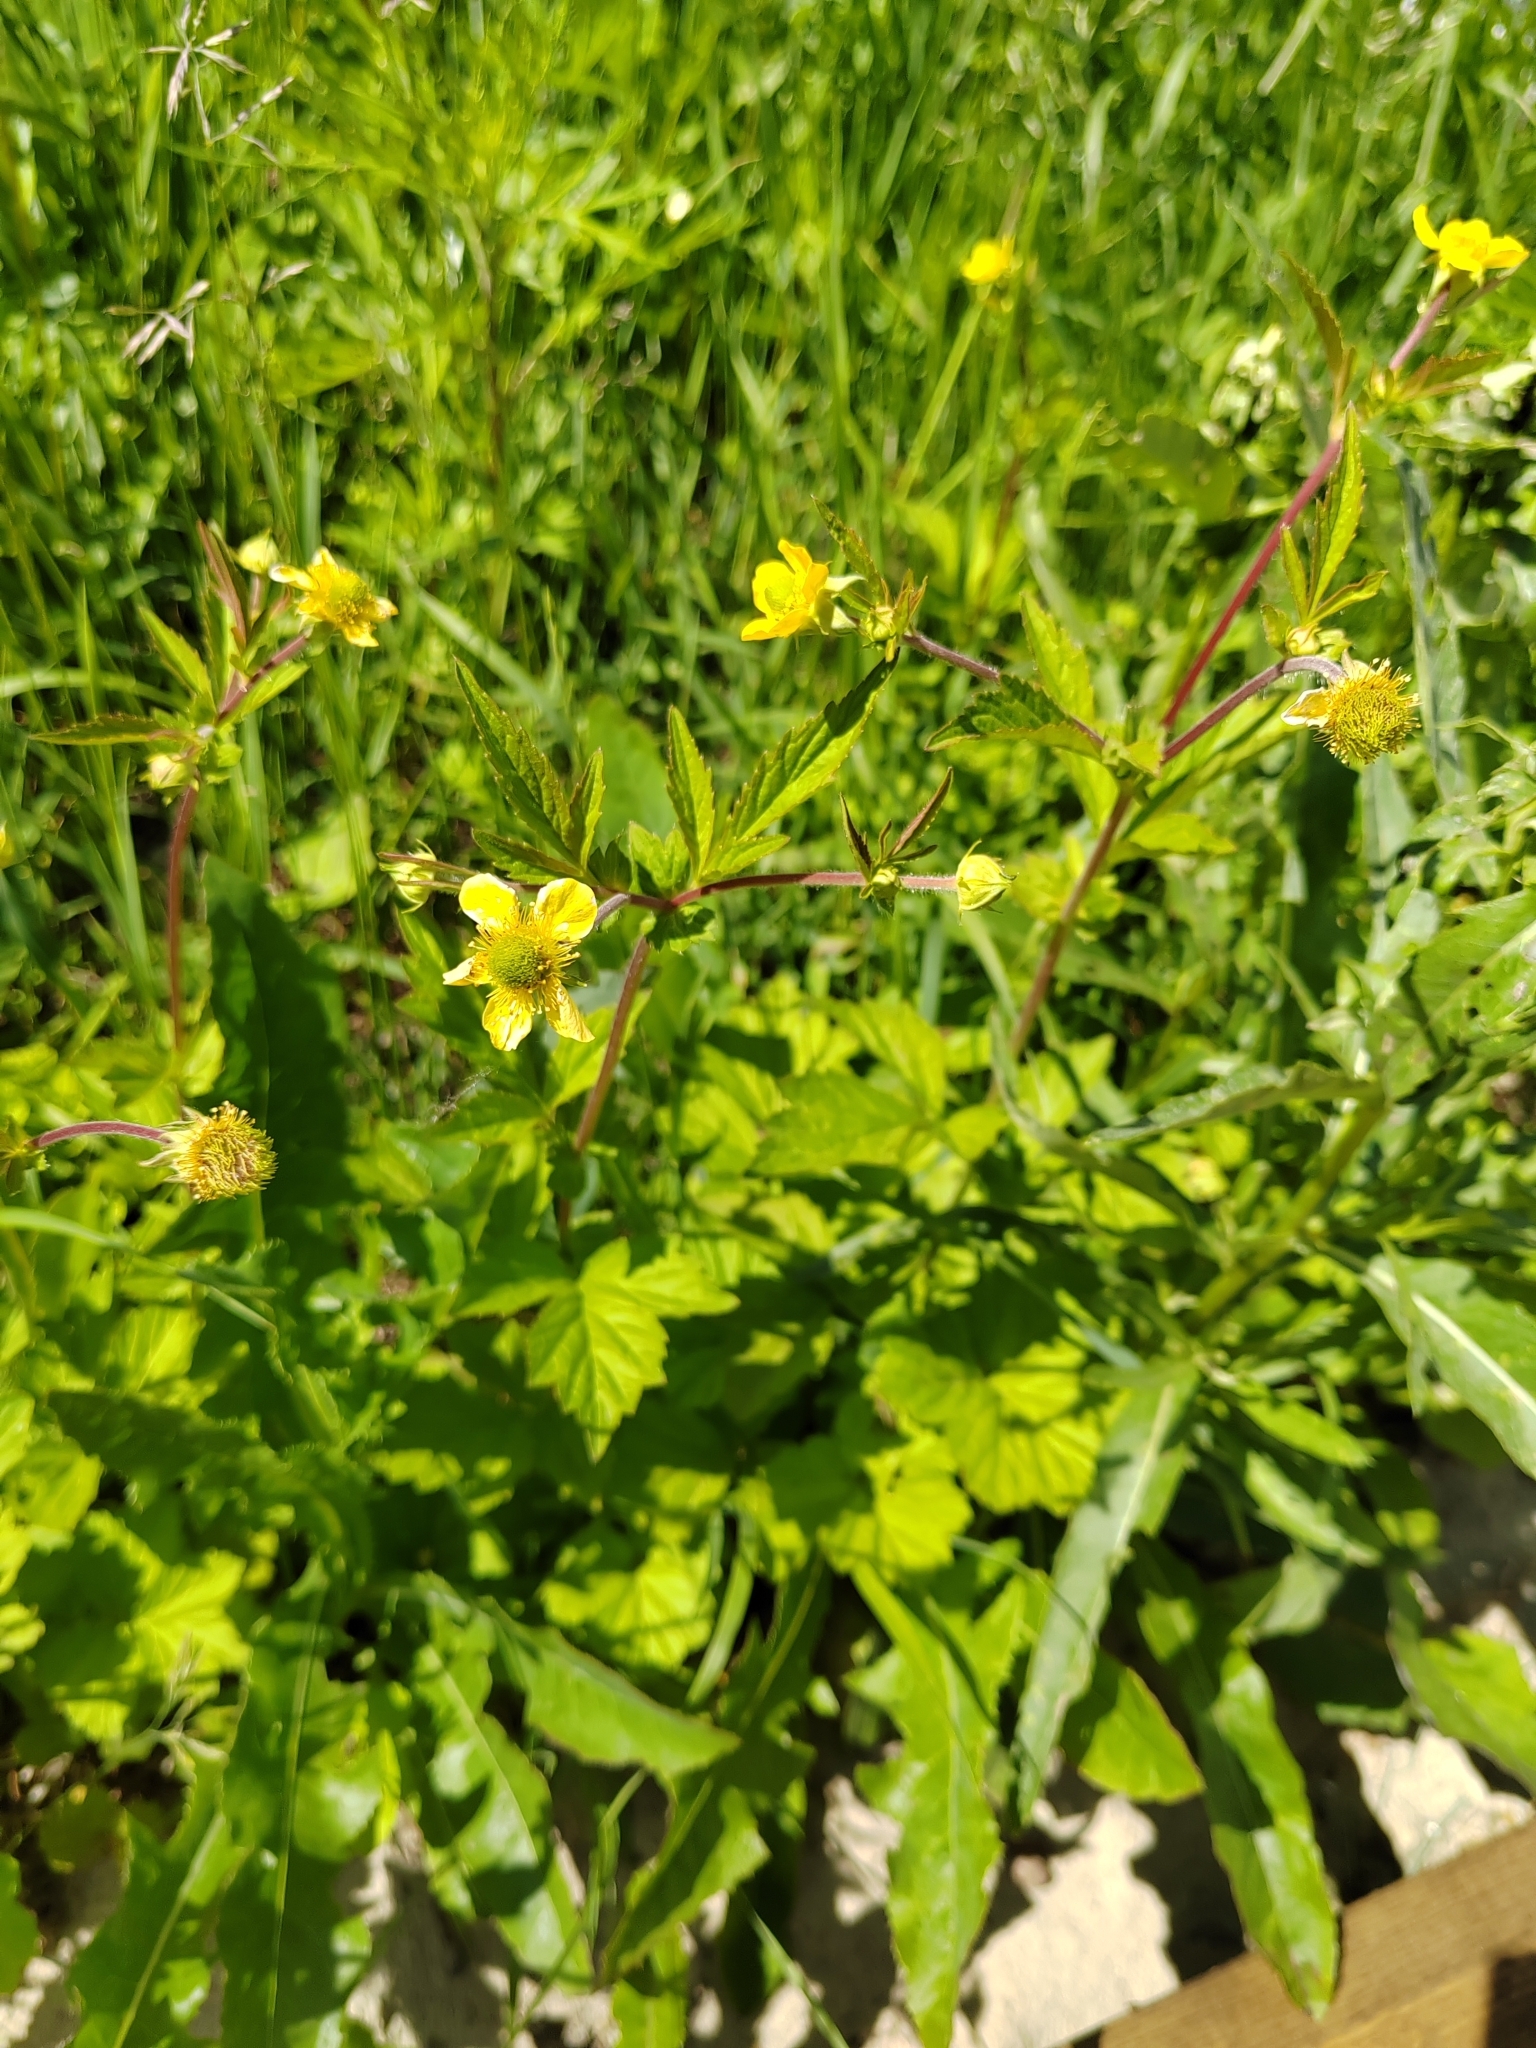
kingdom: Plantae
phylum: Tracheophyta
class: Magnoliopsida
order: Rosales
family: Rosaceae
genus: Geum
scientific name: Geum aleppicum
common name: Yellow avens
